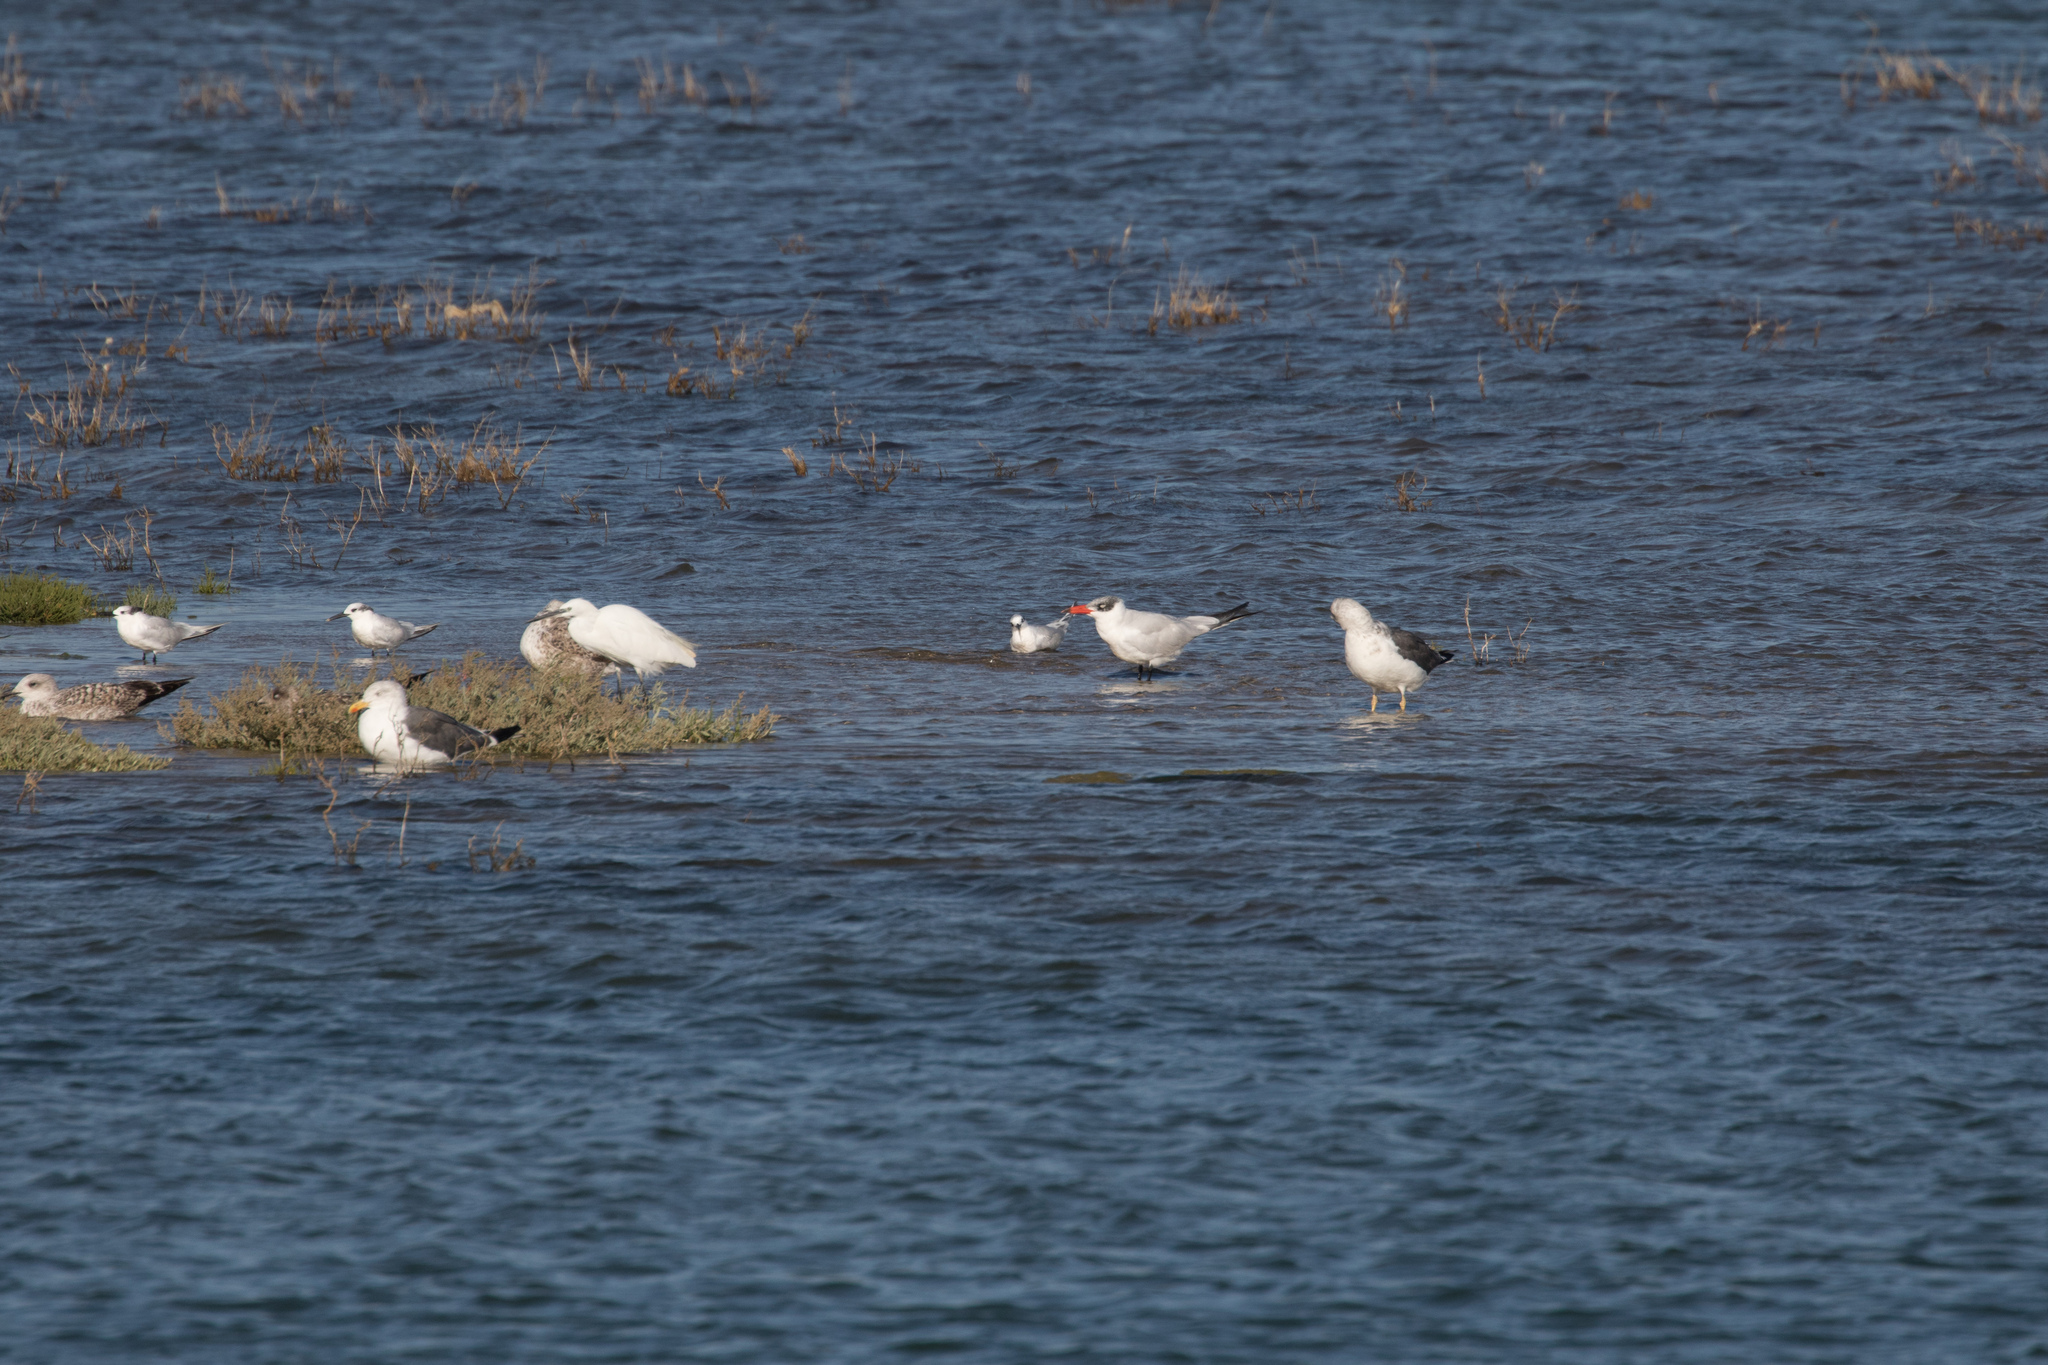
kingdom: Animalia
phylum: Chordata
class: Aves
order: Pelecaniformes
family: Ardeidae
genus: Egretta
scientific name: Egretta garzetta
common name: Little egret
